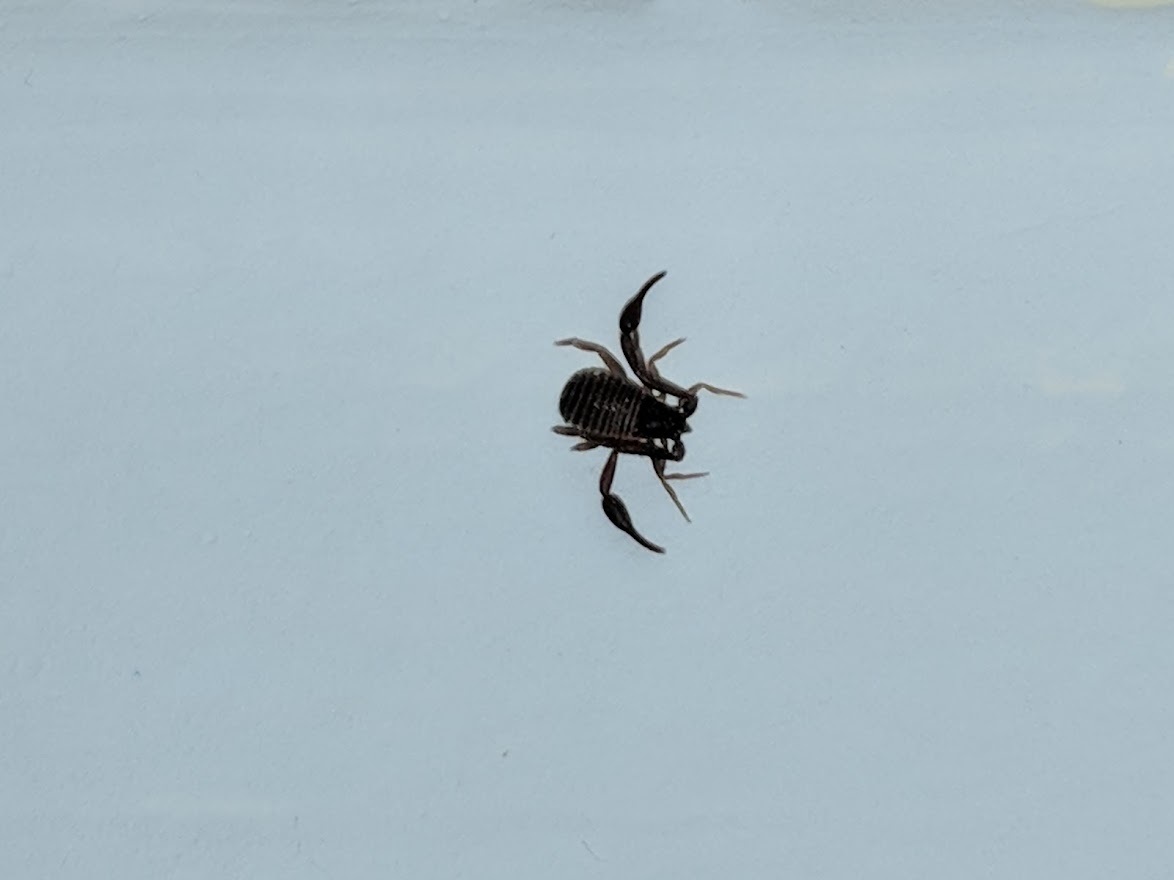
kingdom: Animalia
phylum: Arthropoda
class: Arachnida
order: Pseudoscorpiones
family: Cheliferidae
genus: Chelifer
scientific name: Chelifer cancroides
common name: House false-scorpion
